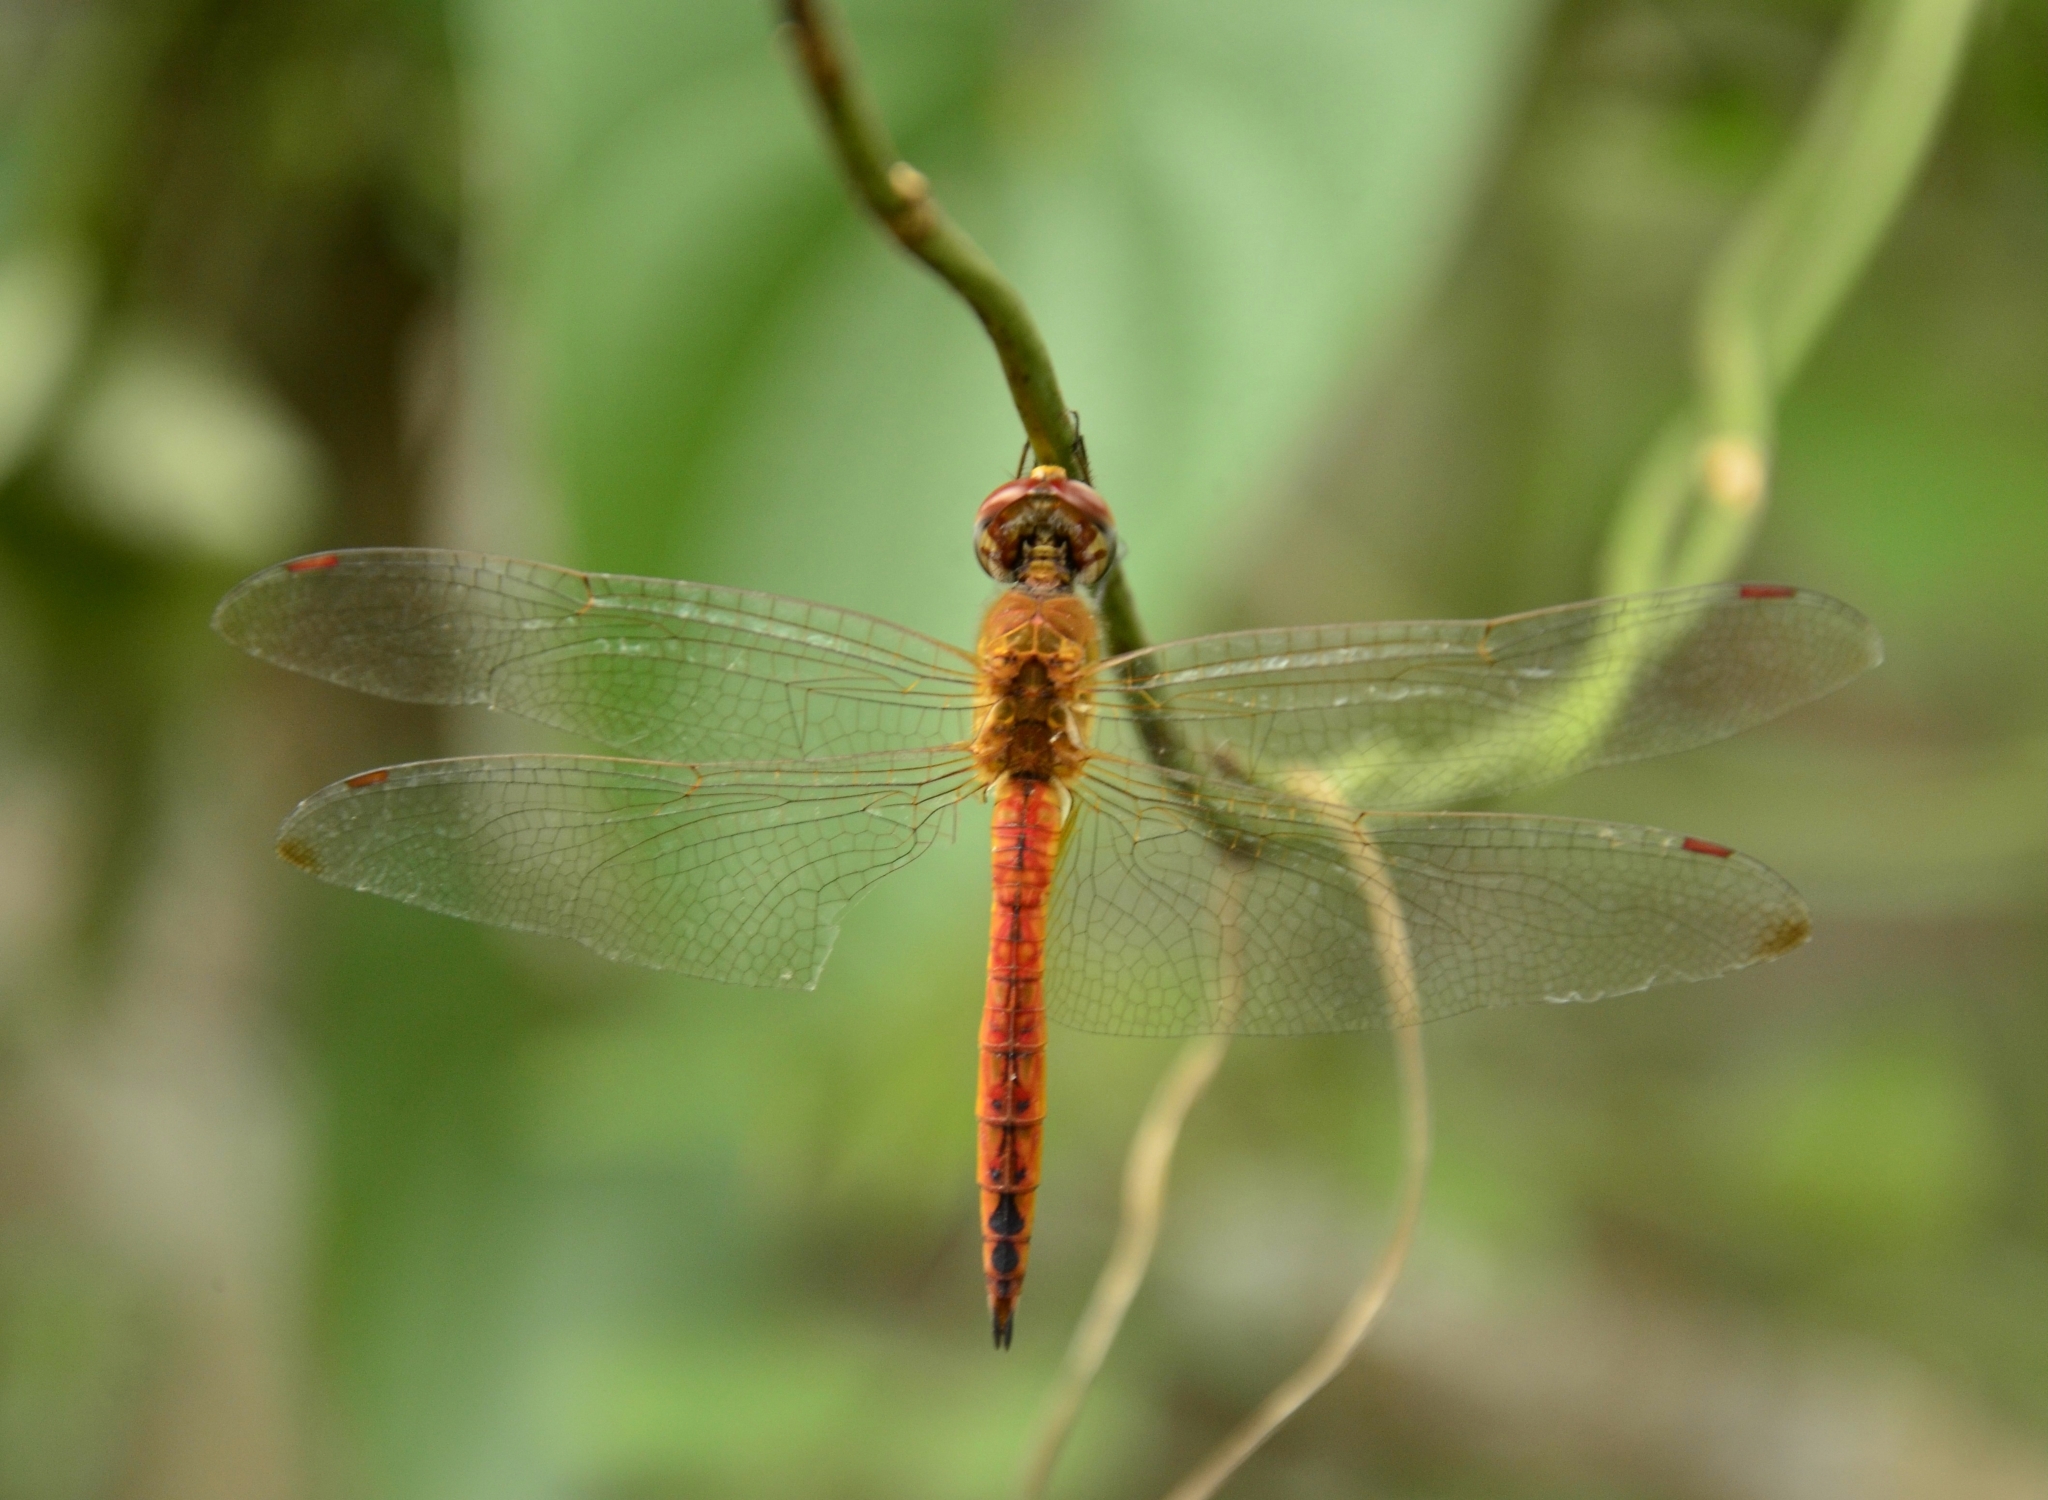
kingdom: Animalia
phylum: Arthropoda
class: Insecta
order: Odonata
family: Libellulidae
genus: Pantala
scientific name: Pantala flavescens
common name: Wandering glider
